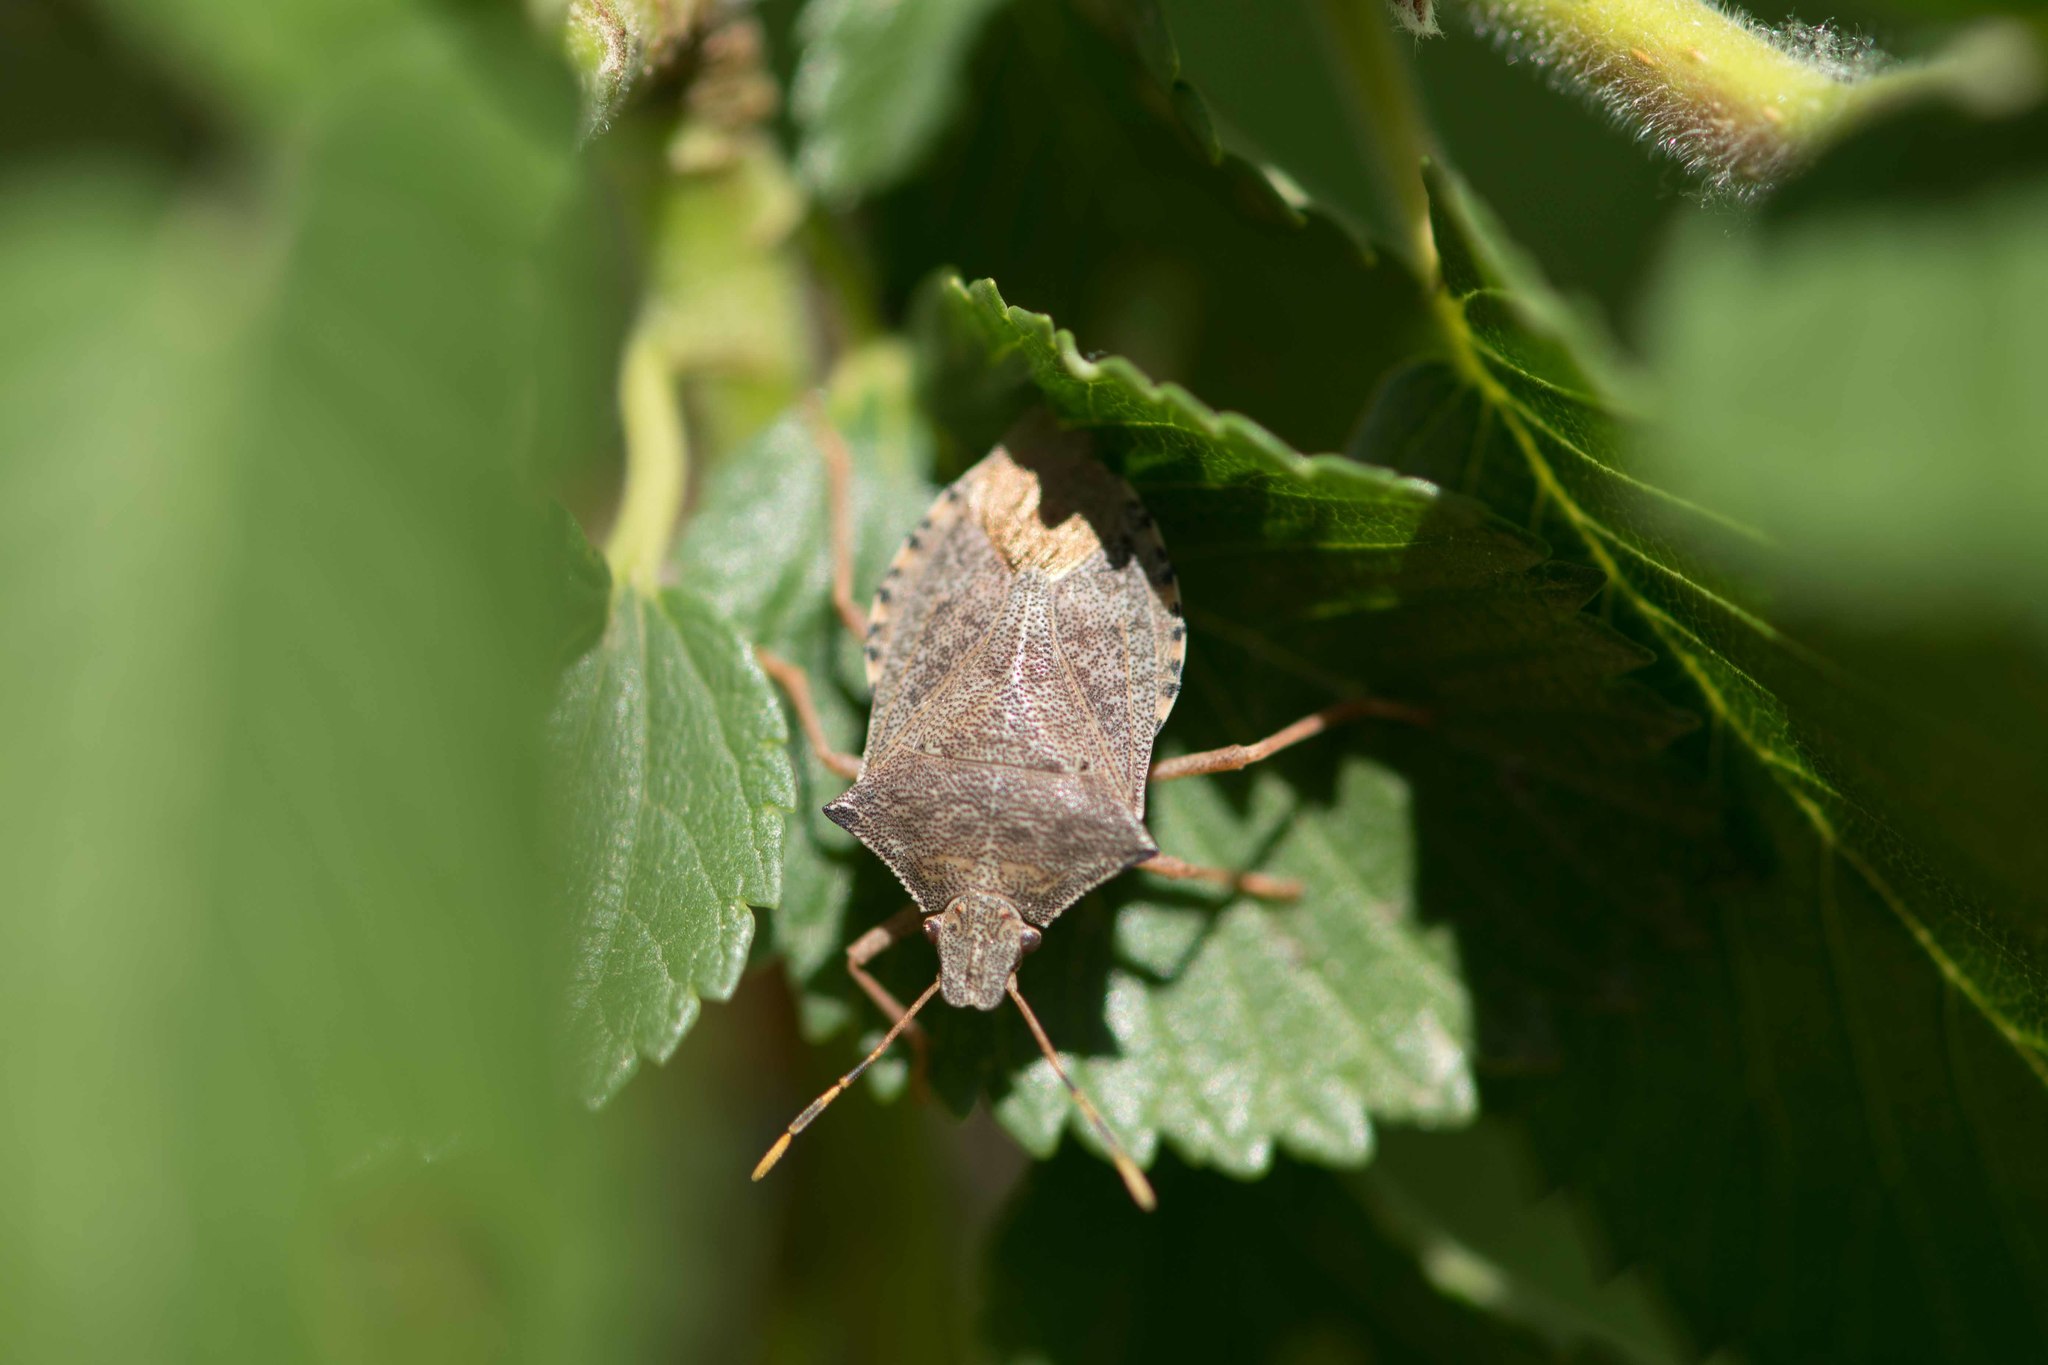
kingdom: Animalia
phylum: Arthropoda
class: Insecta
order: Hemiptera
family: Pentatomidae
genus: Arma
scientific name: Arma custos
